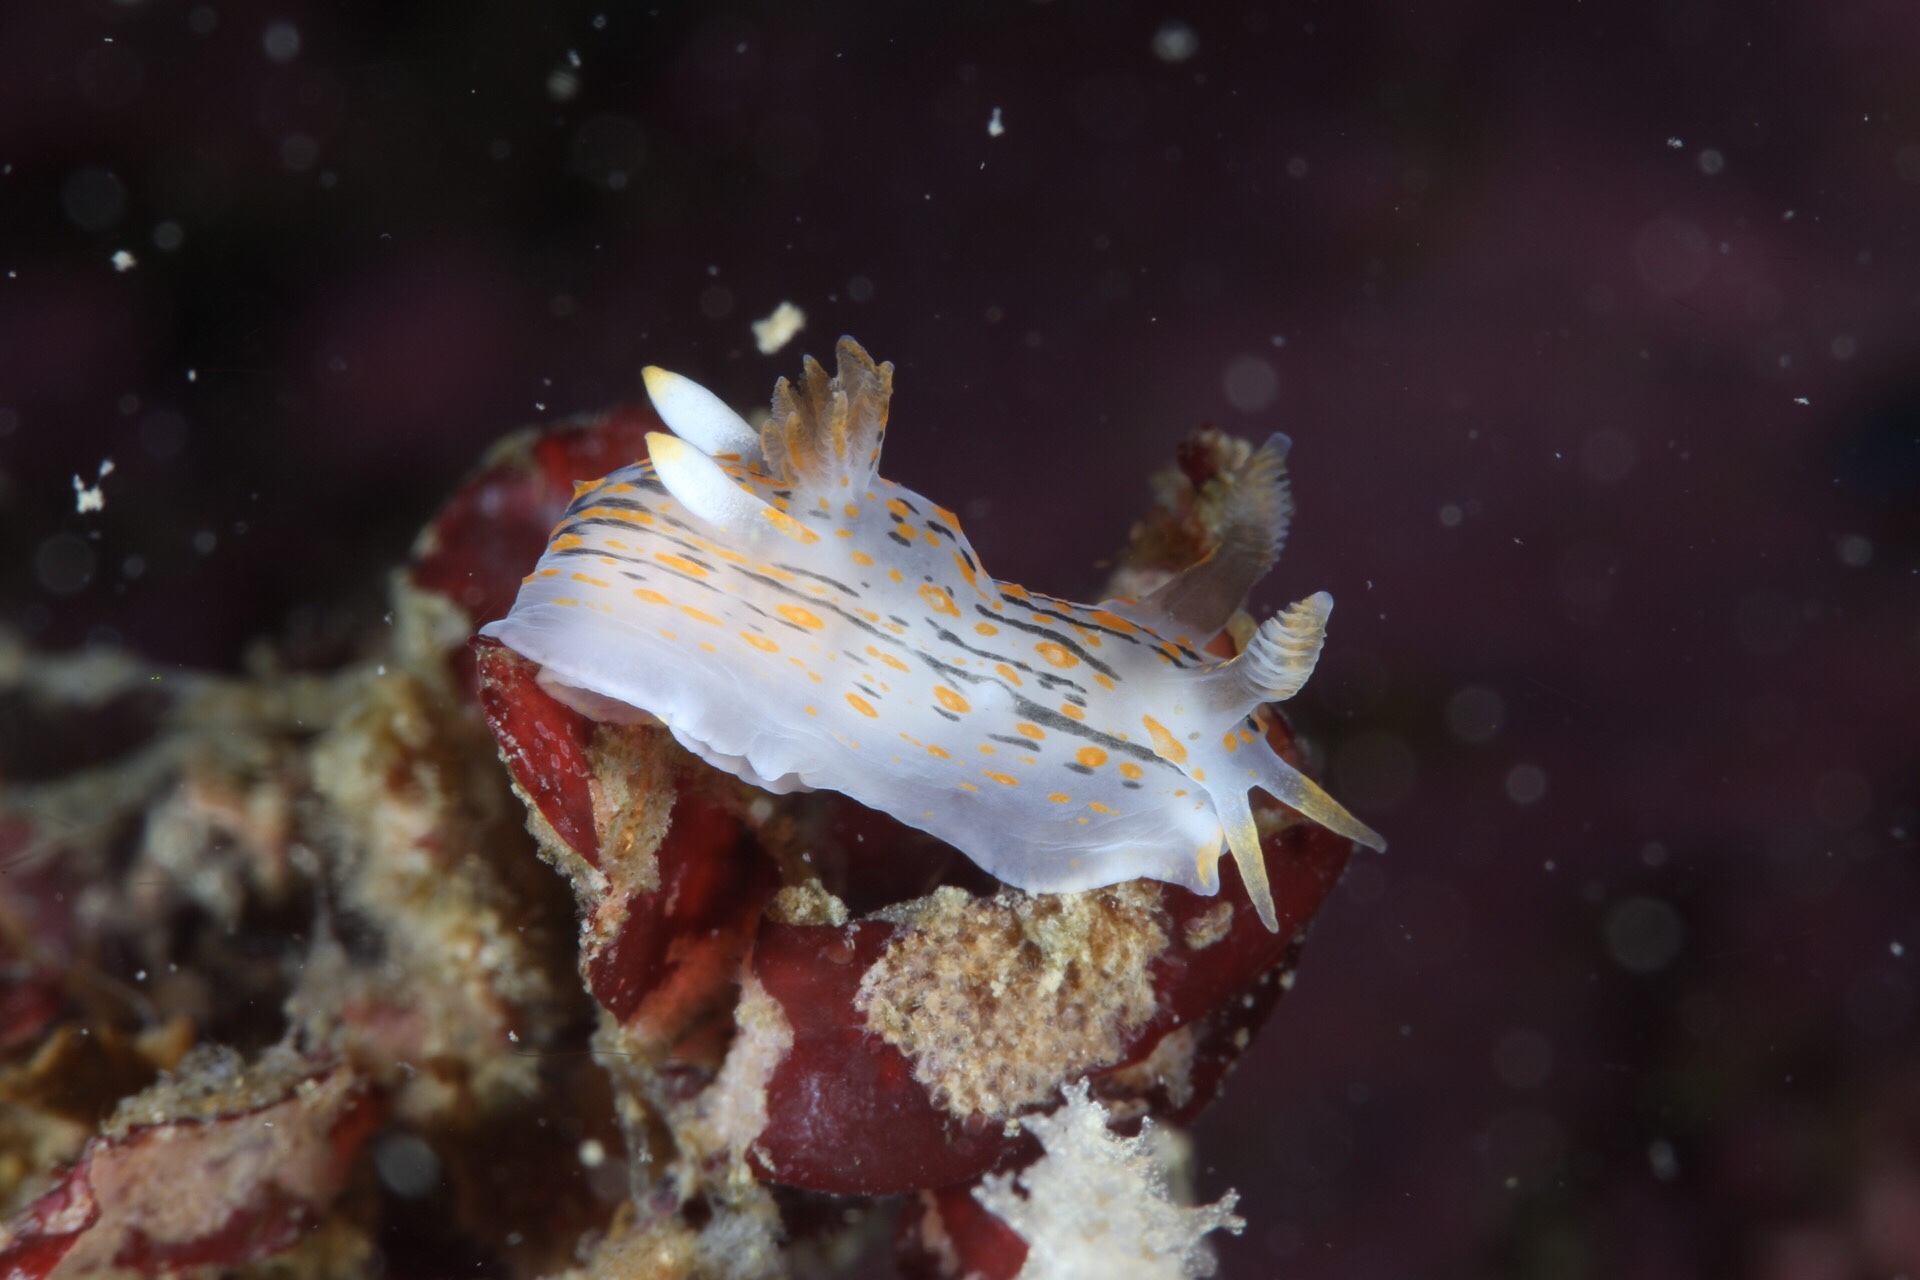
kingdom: Animalia
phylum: Mollusca
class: Gastropoda
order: Nudibranchia
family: Polyceridae
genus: Polycera
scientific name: Polycera quadrilineata
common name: Four-striped polycera
